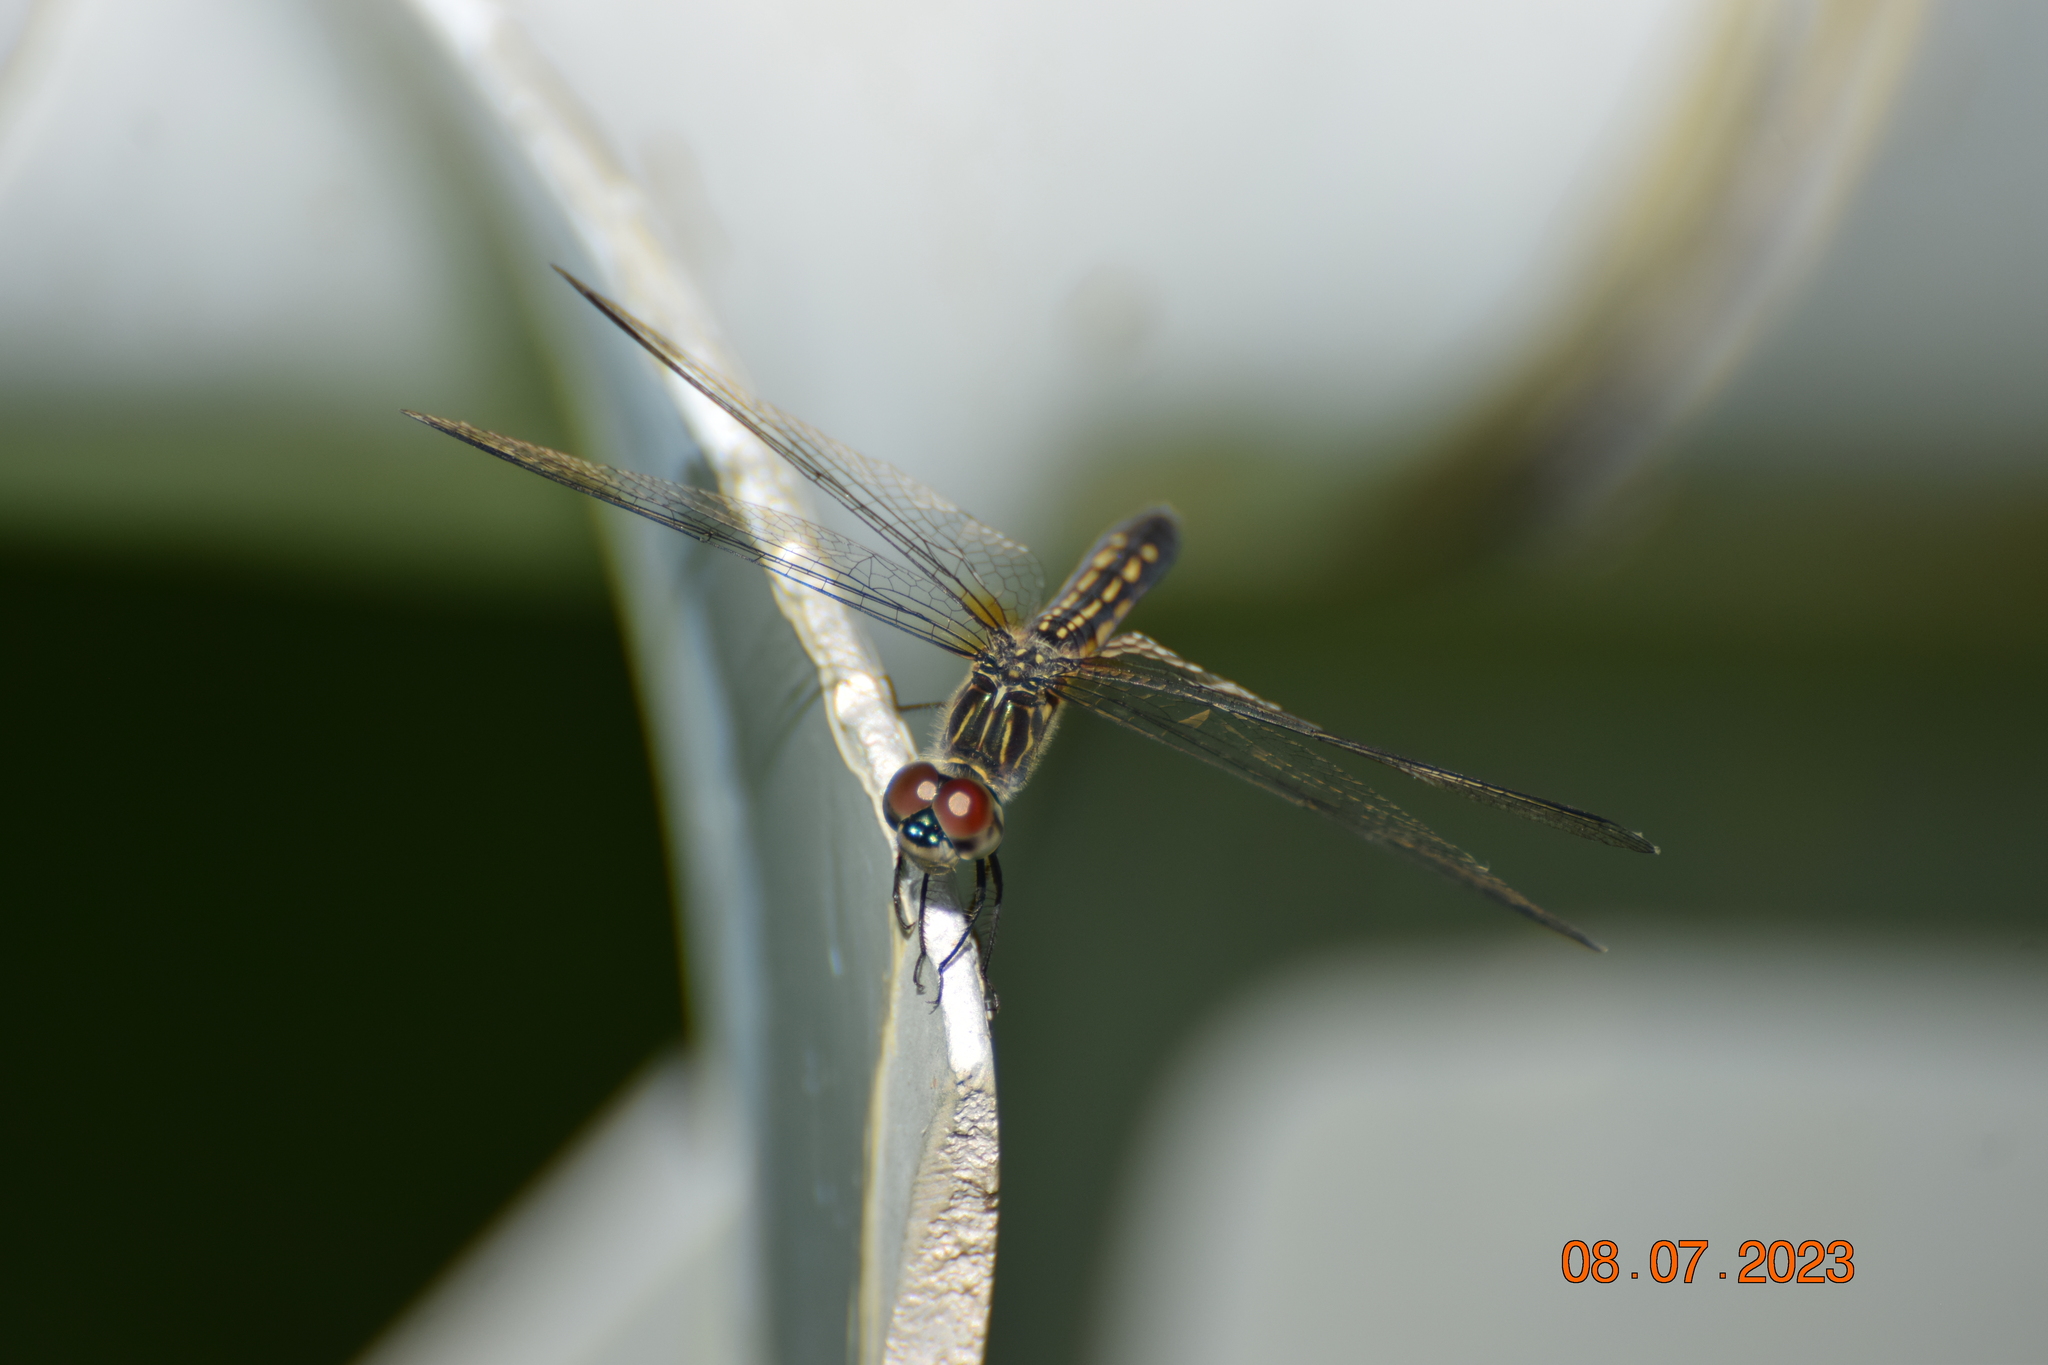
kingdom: Animalia
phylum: Arthropoda
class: Insecta
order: Odonata
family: Libellulidae
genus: Pachydiplax
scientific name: Pachydiplax longipennis
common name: Blue dasher
